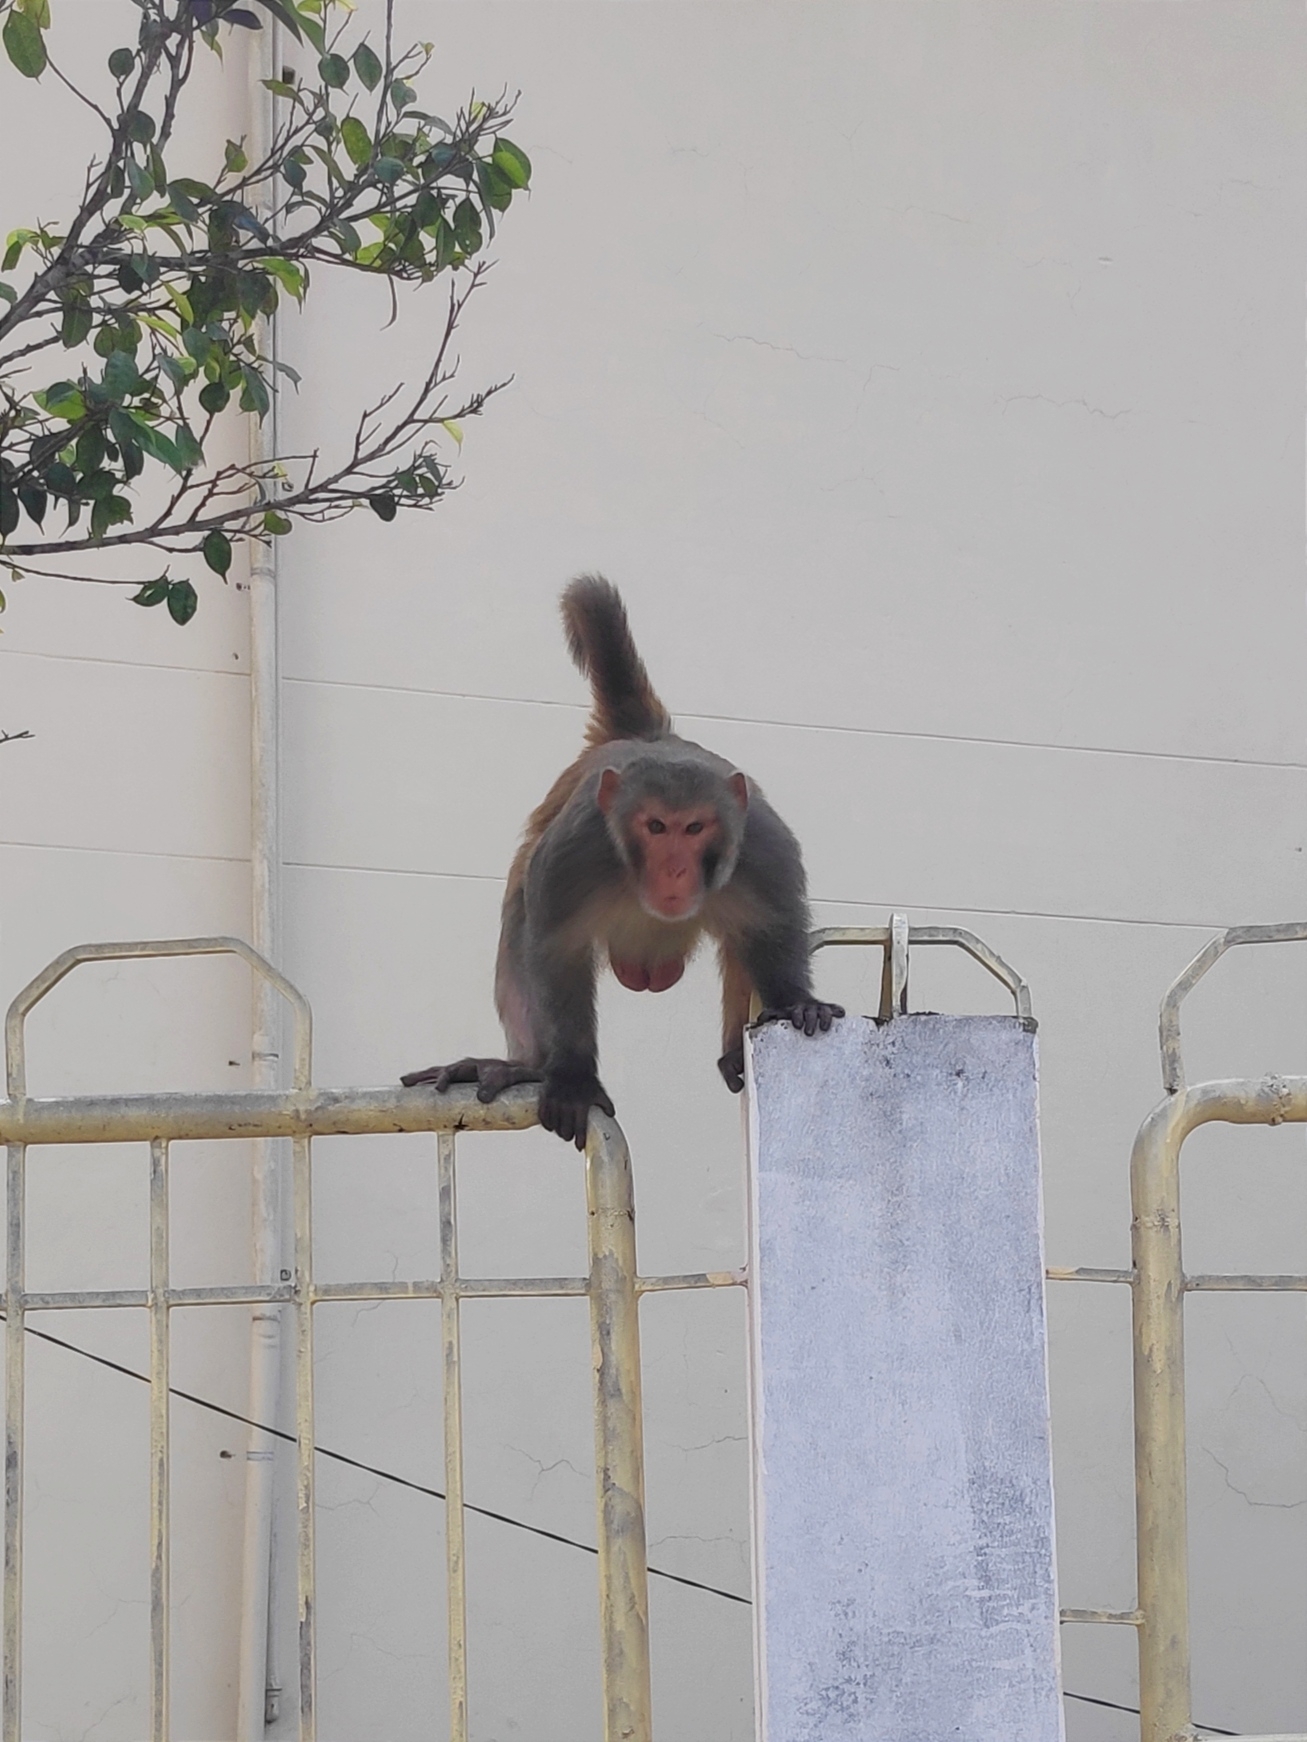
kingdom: Animalia
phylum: Chordata
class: Mammalia
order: Primates
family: Cercopithecidae
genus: Macaca
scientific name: Macaca mulatta
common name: Rhesus monkey
